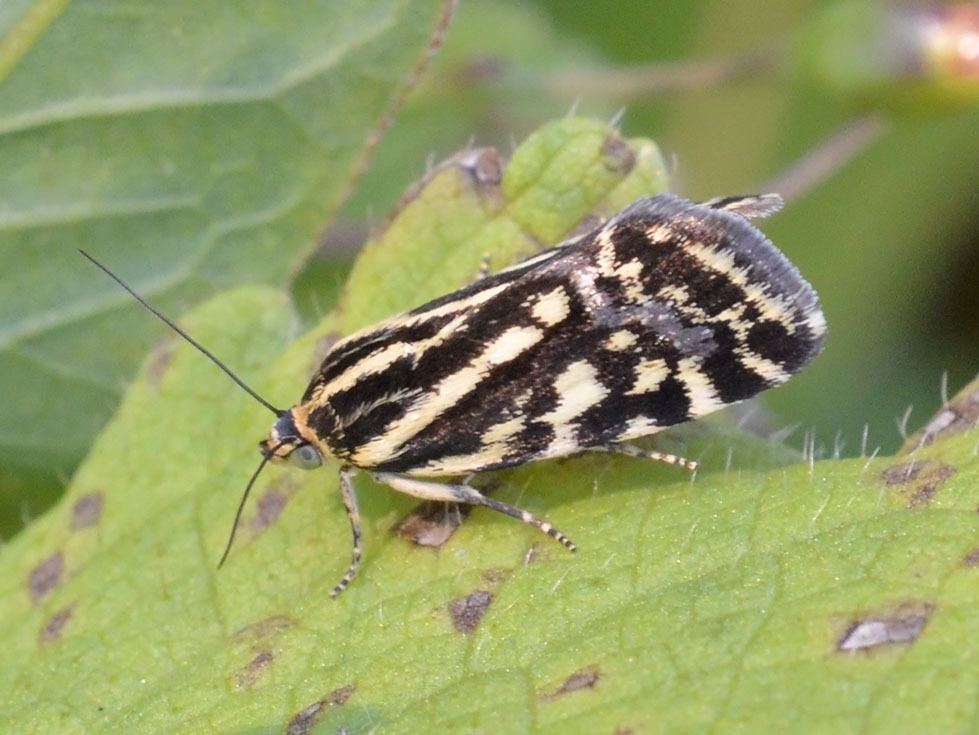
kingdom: Animalia
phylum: Arthropoda
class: Insecta
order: Lepidoptera
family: Noctuidae
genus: Acontia
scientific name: Acontia trabealis
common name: Spotted sulphur
